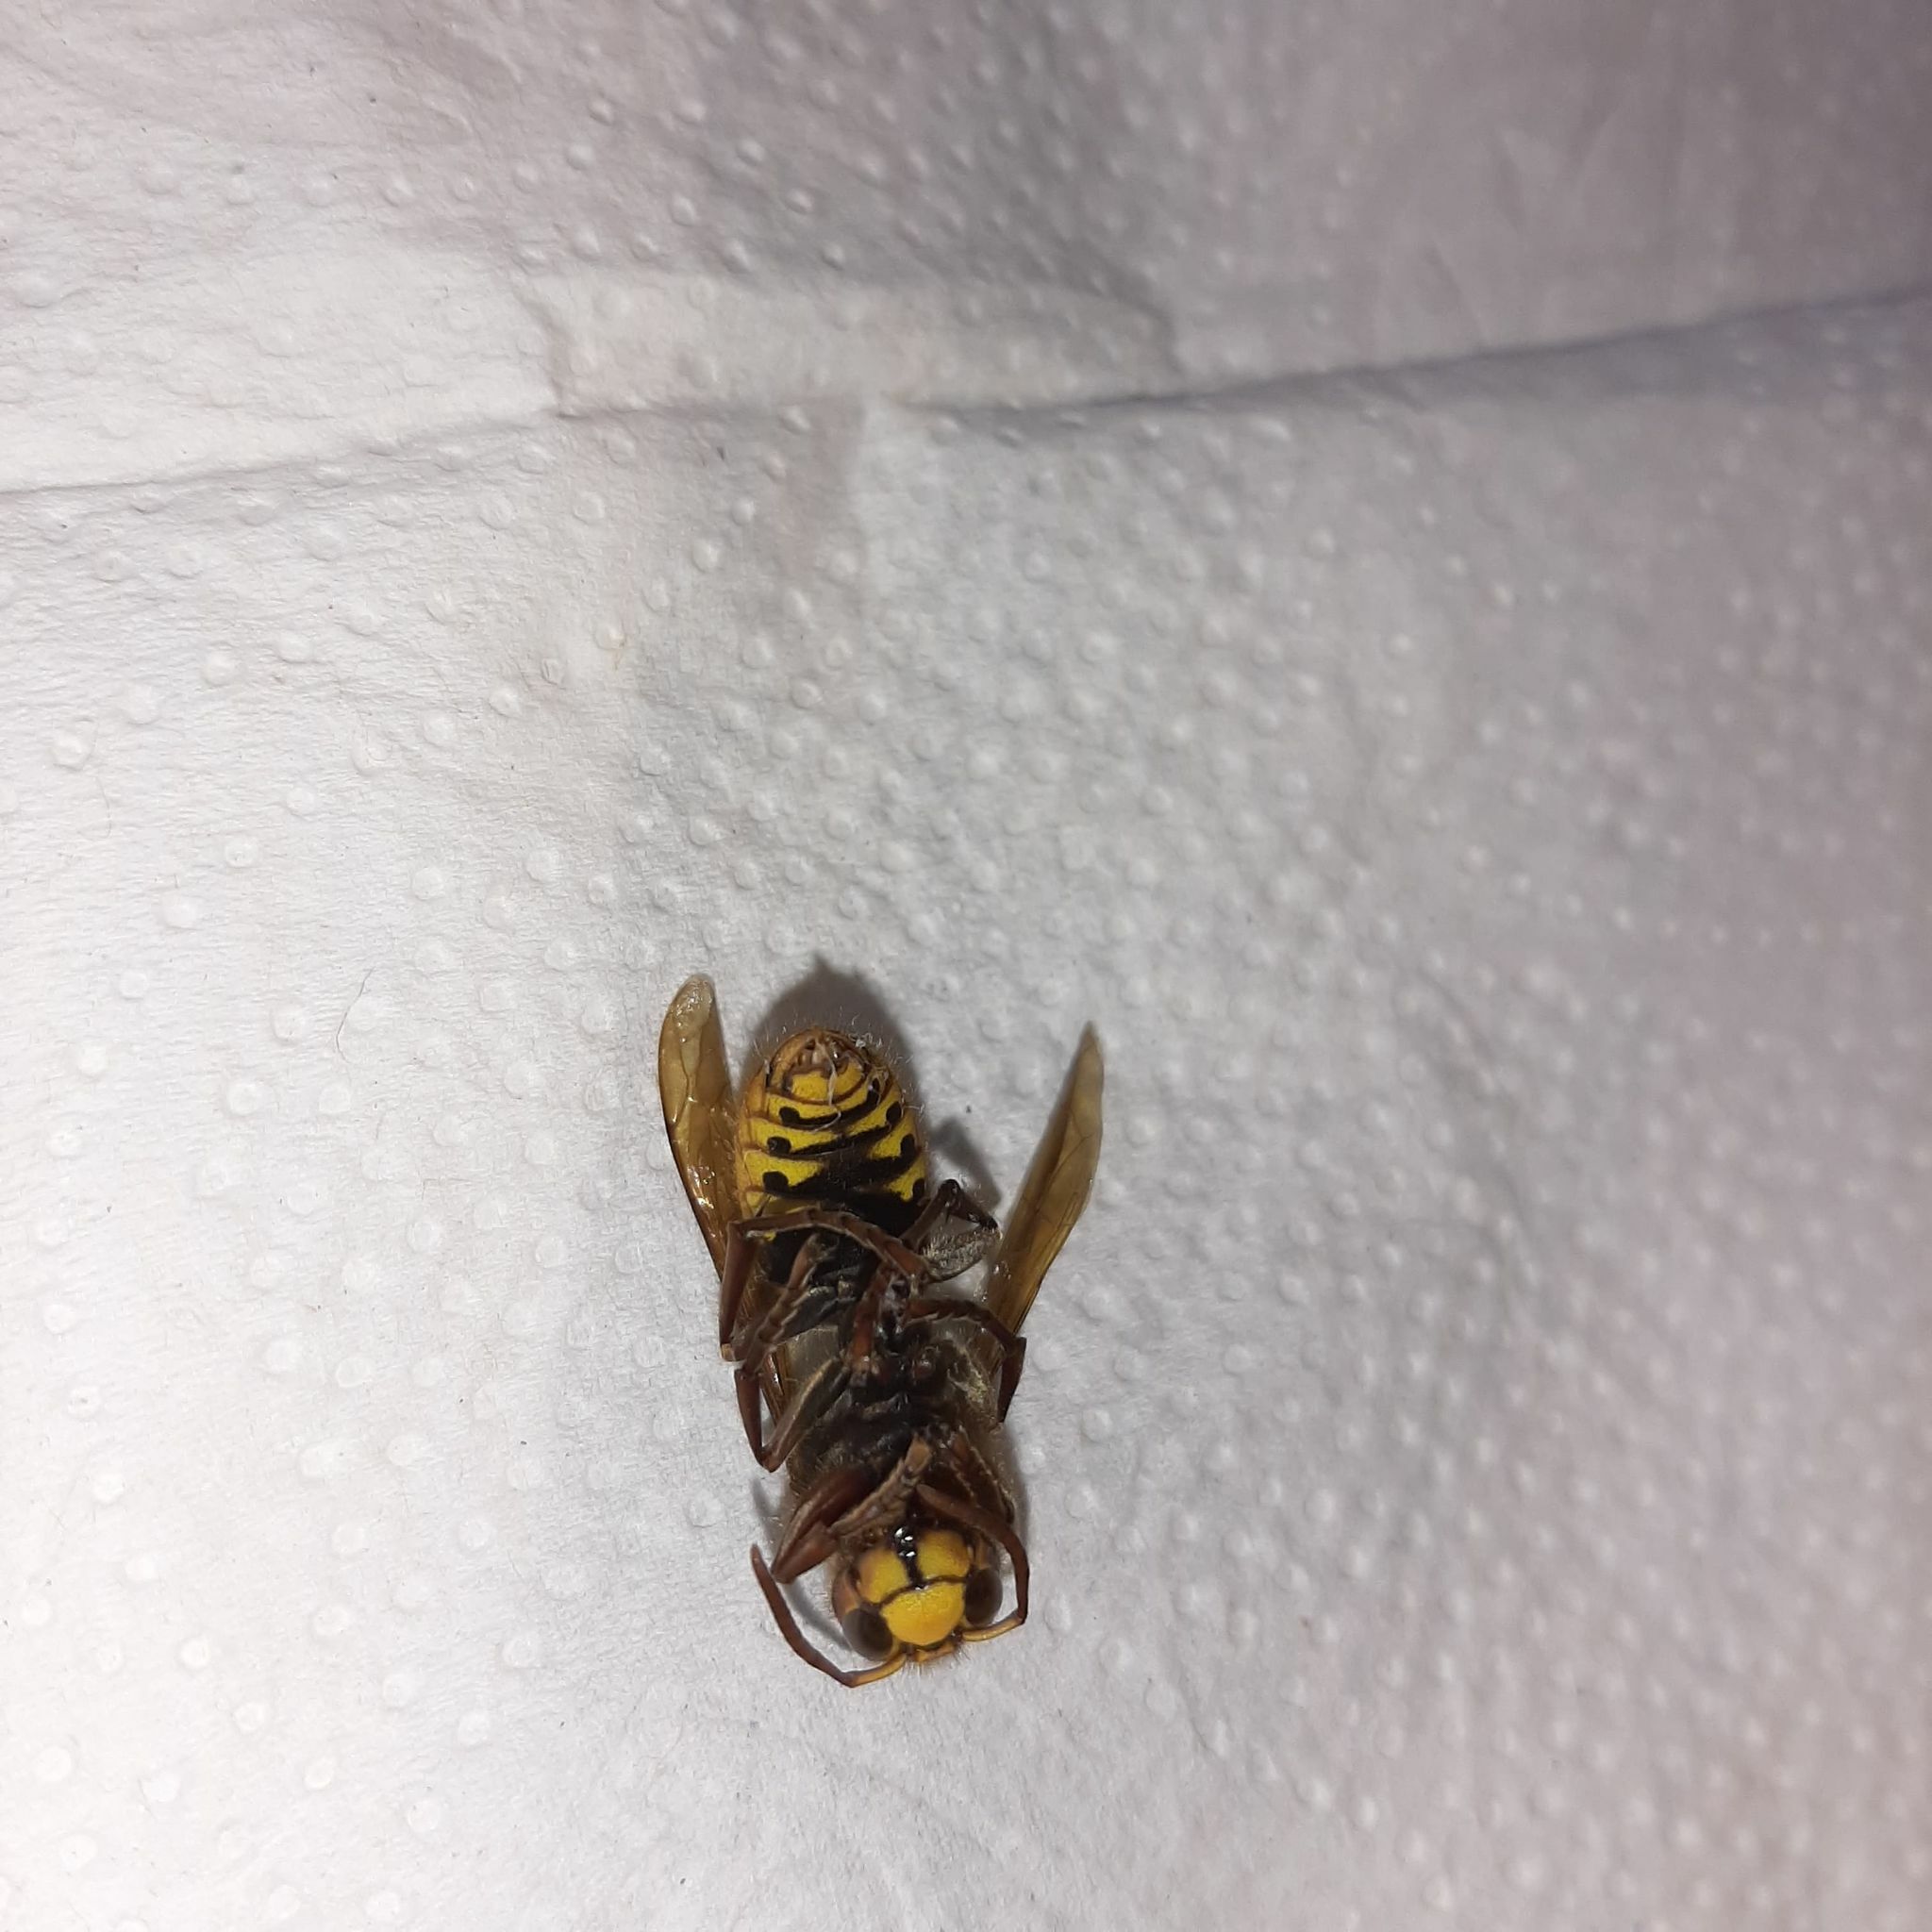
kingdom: Animalia
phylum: Arthropoda
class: Insecta
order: Hymenoptera
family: Vespidae
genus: Vespa
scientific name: Vespa crabro
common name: Hornet
